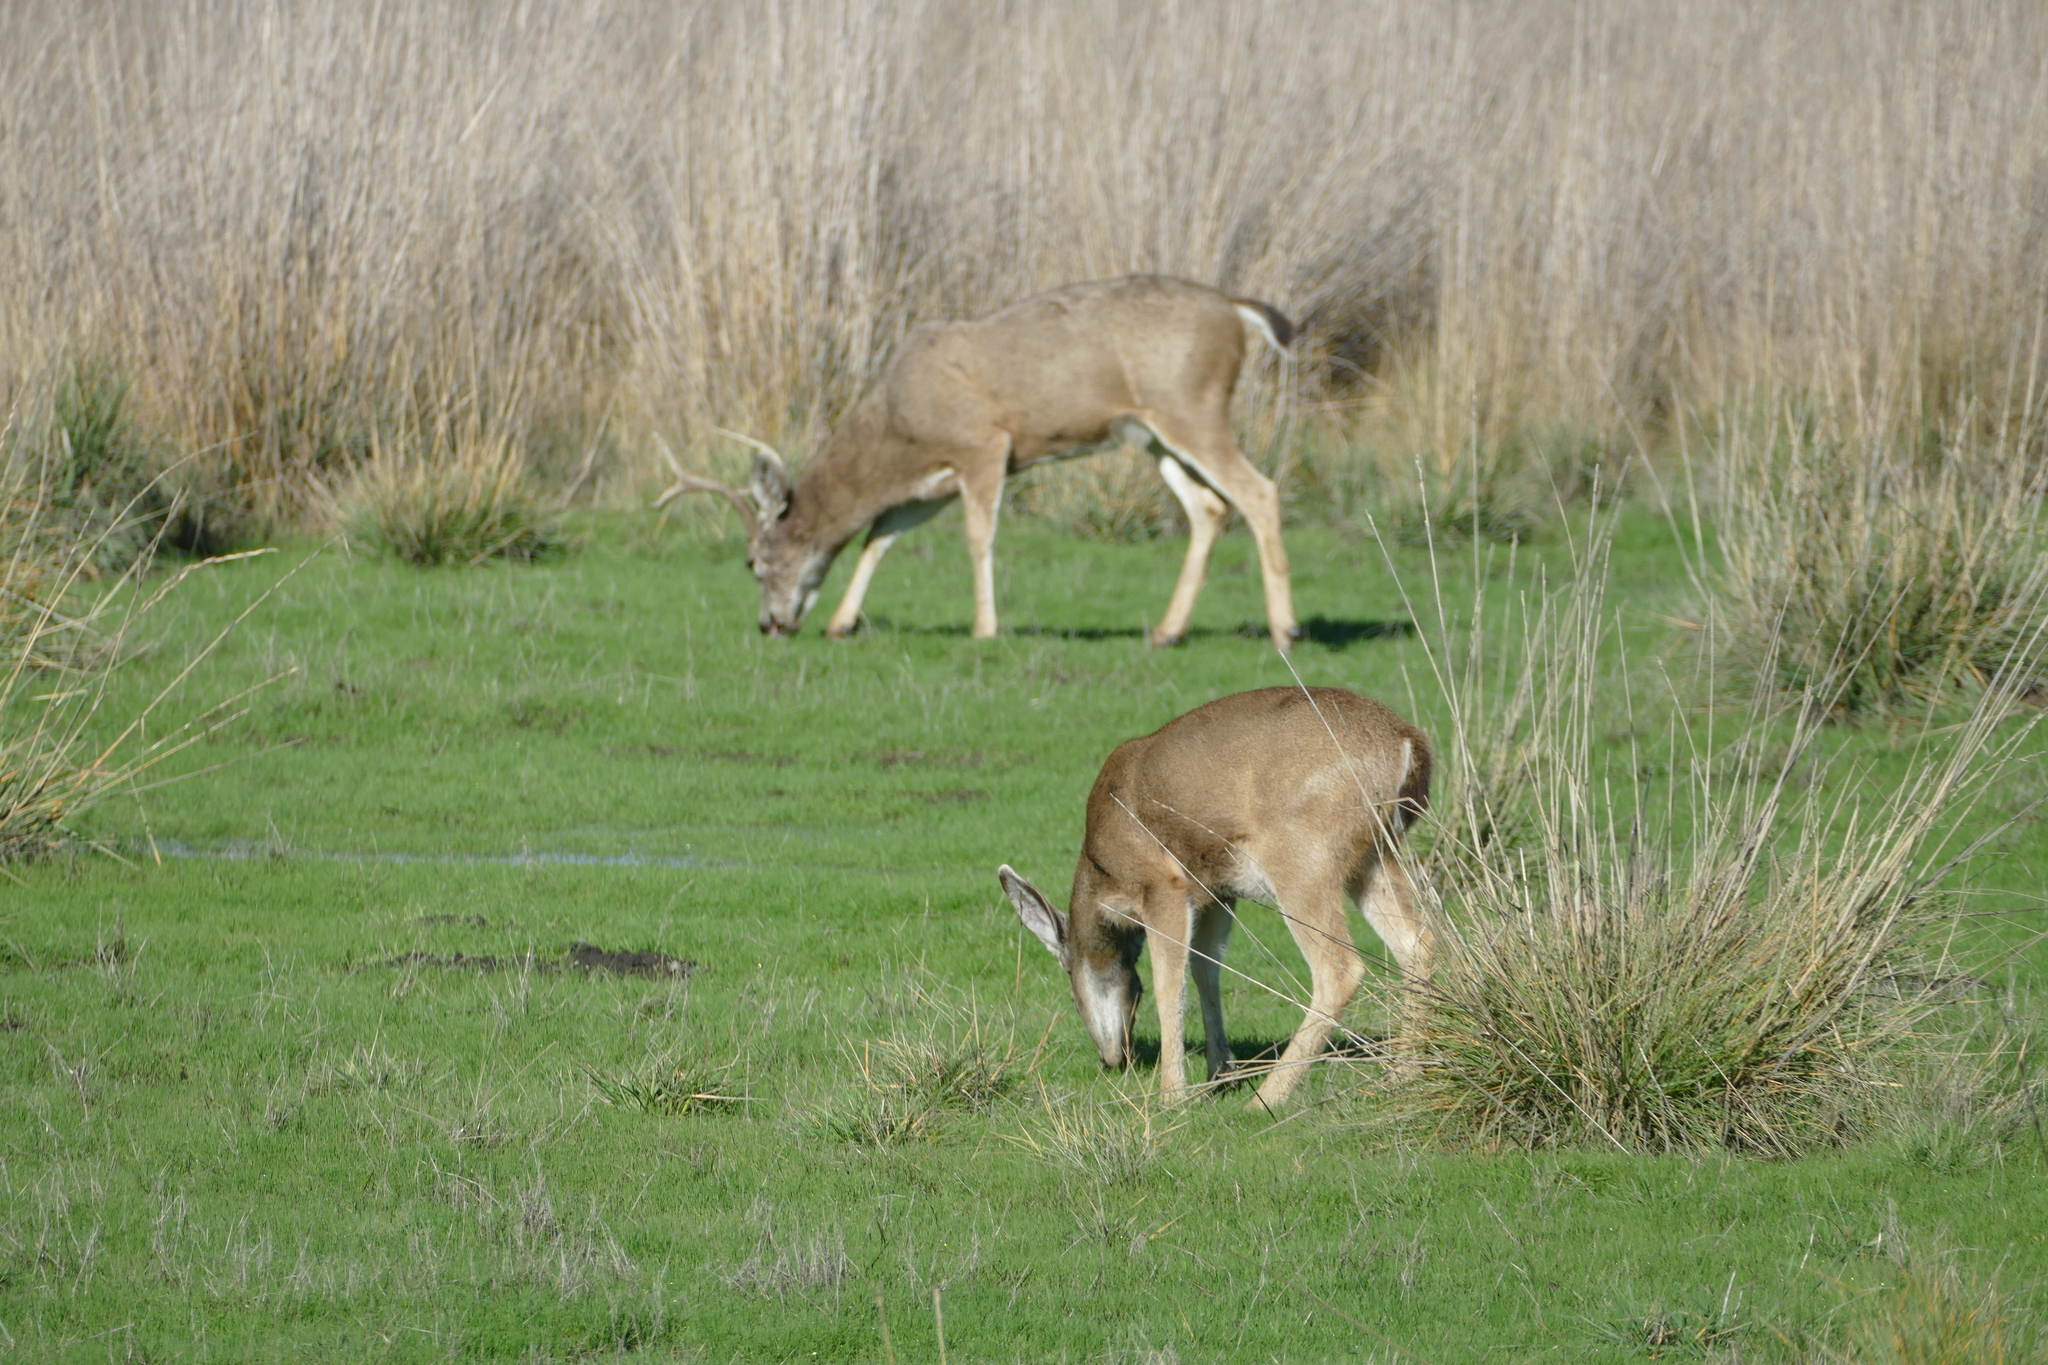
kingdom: Animalia
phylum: Chordata
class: Mammalia
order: Artiodactyla
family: Cervidae
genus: Odocoileus
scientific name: Odocoileus hemionus
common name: Mule deer
